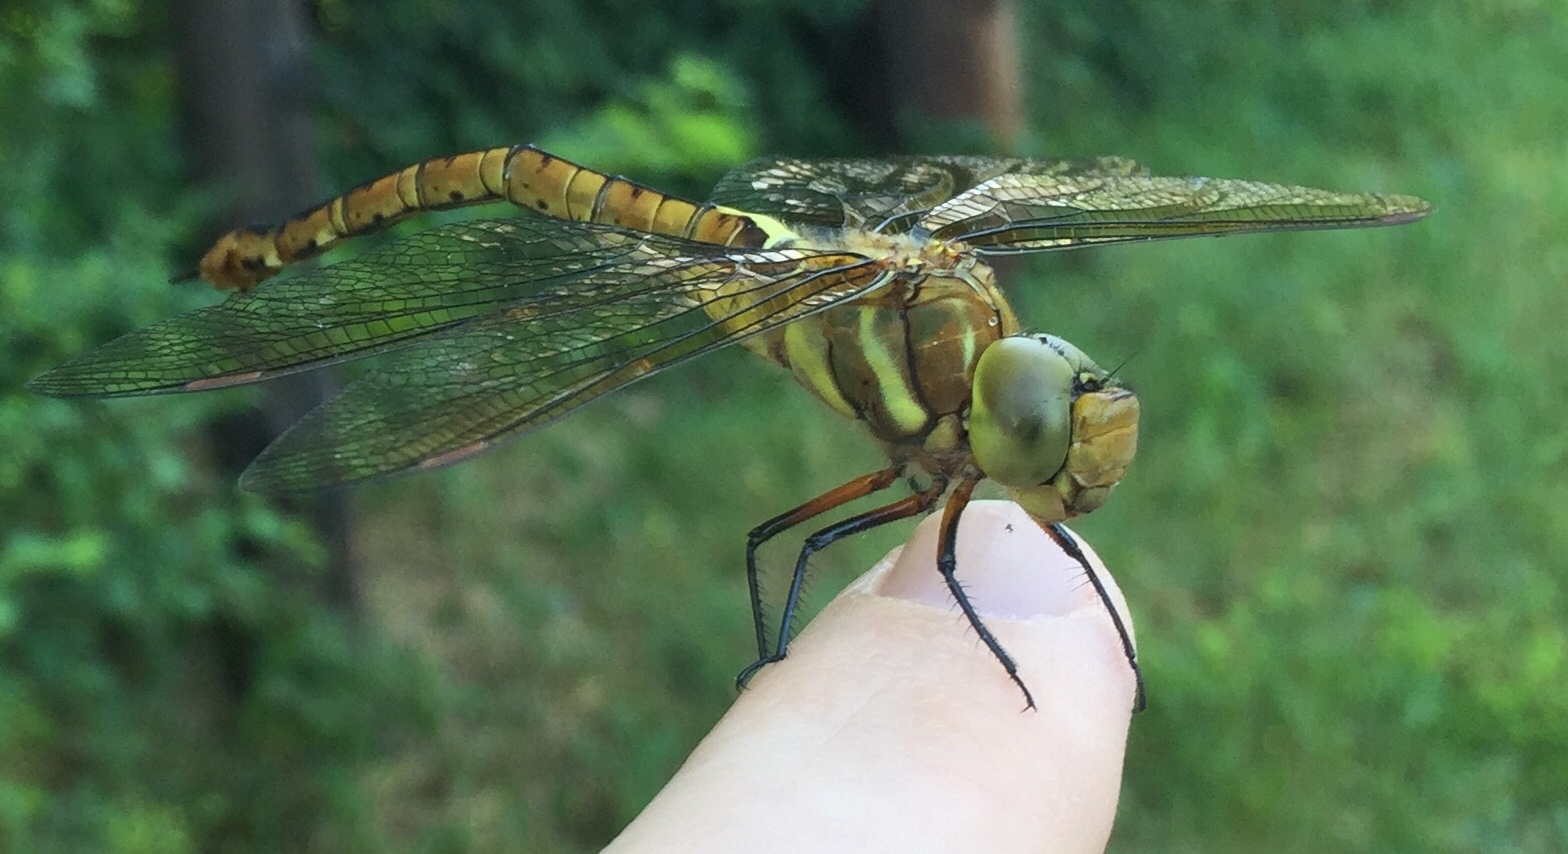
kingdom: Animalia
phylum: Arthropoda
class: Insecta
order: Odonata
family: Aeshnidae
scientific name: Aeshnidae
